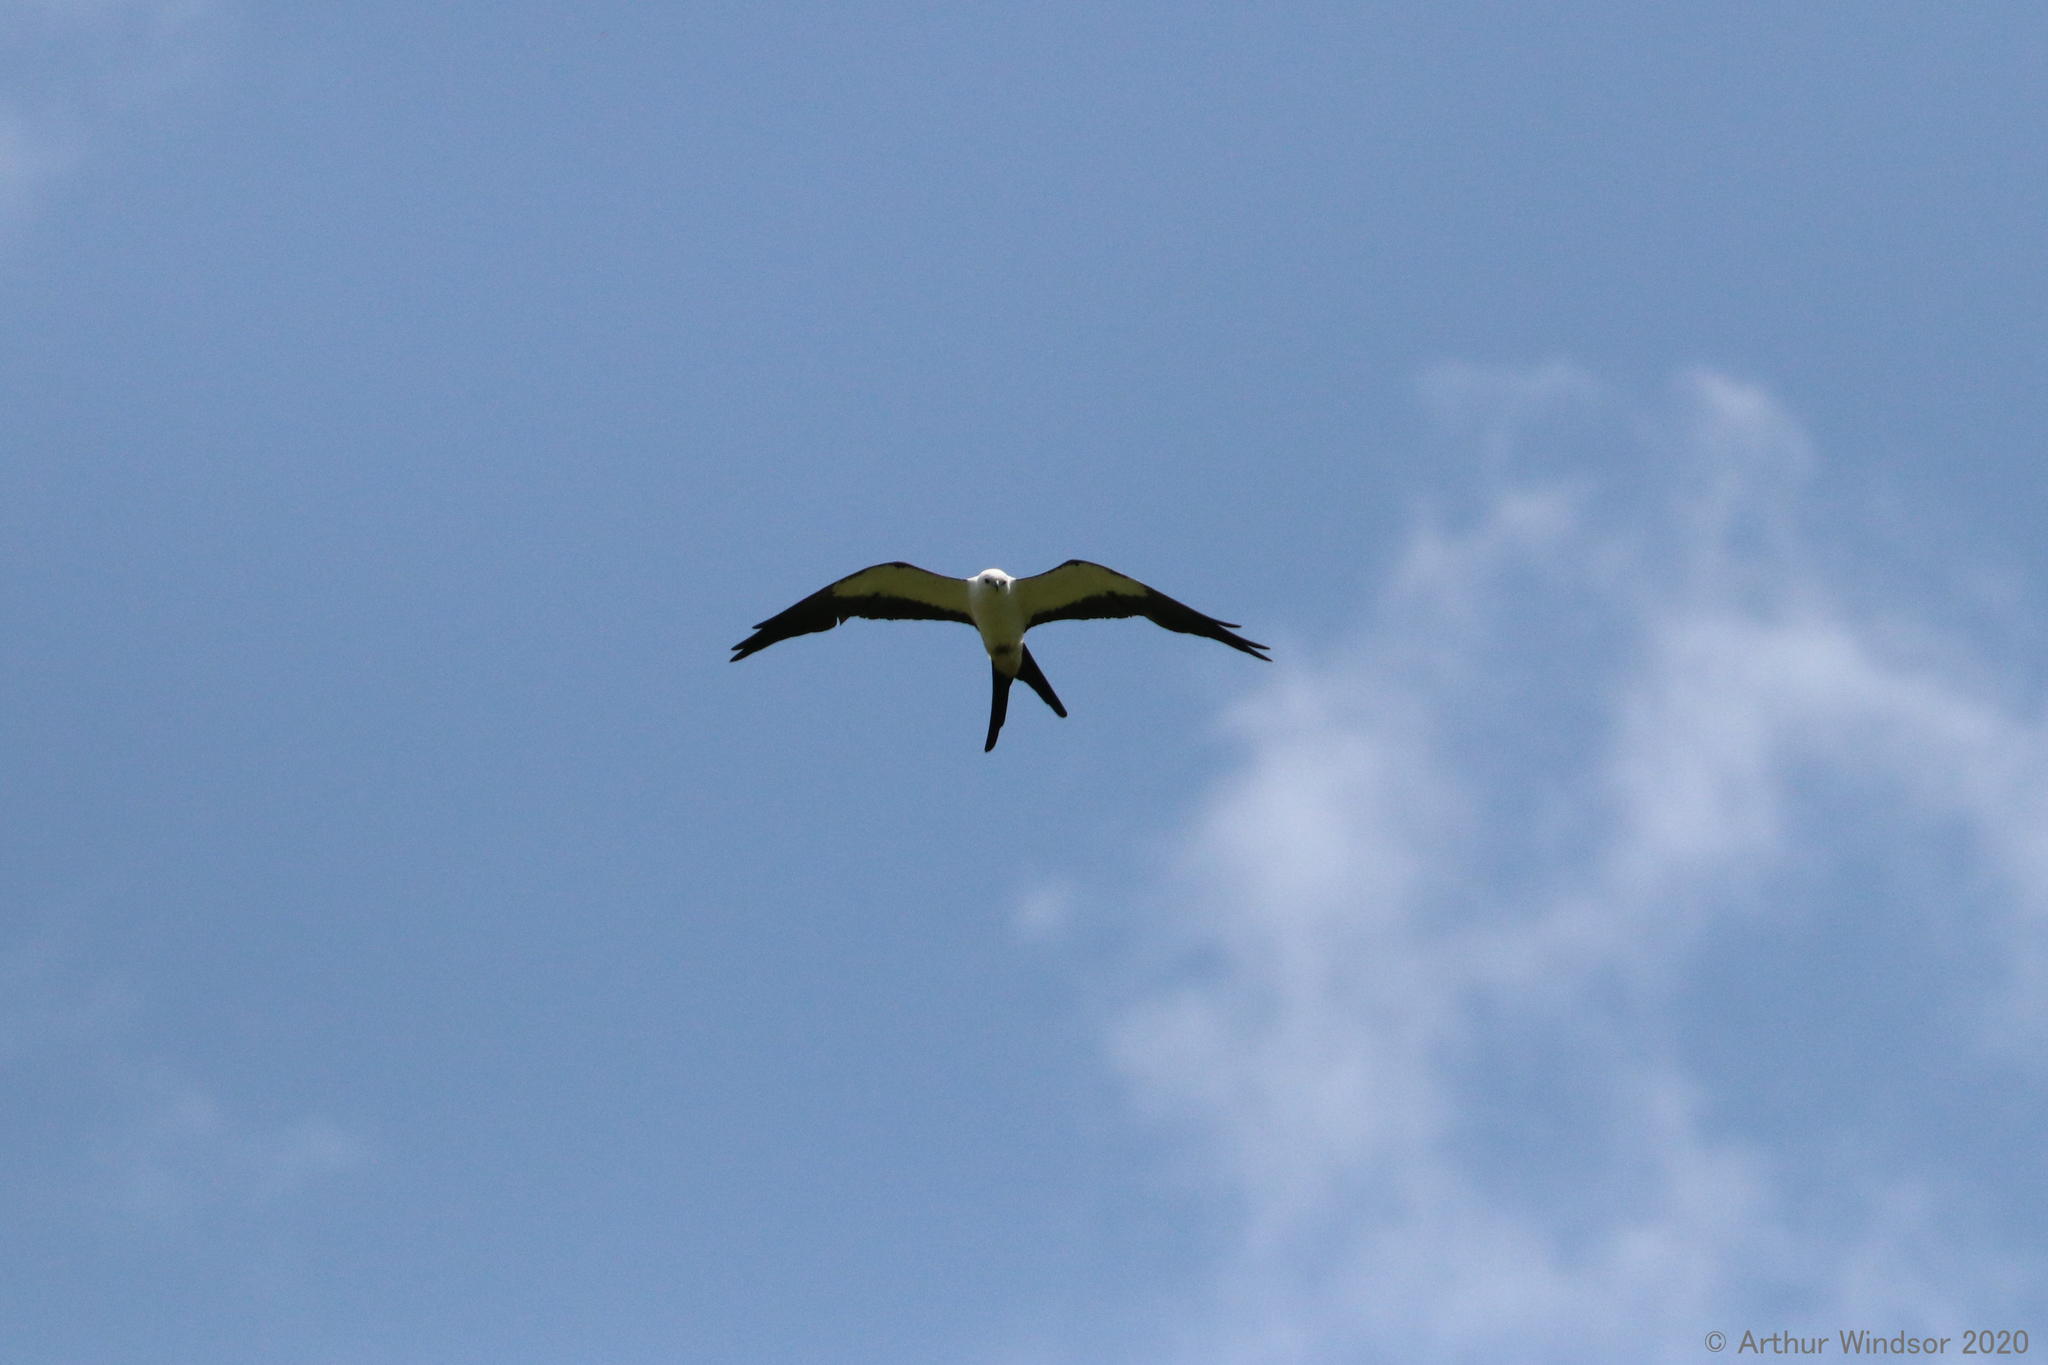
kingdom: Animalia
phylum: Chordata
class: Aves
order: Accipitriformes
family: Accipitridae
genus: Elanoides
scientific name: Elanoides forficatus
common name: Swallow-tailed kite
